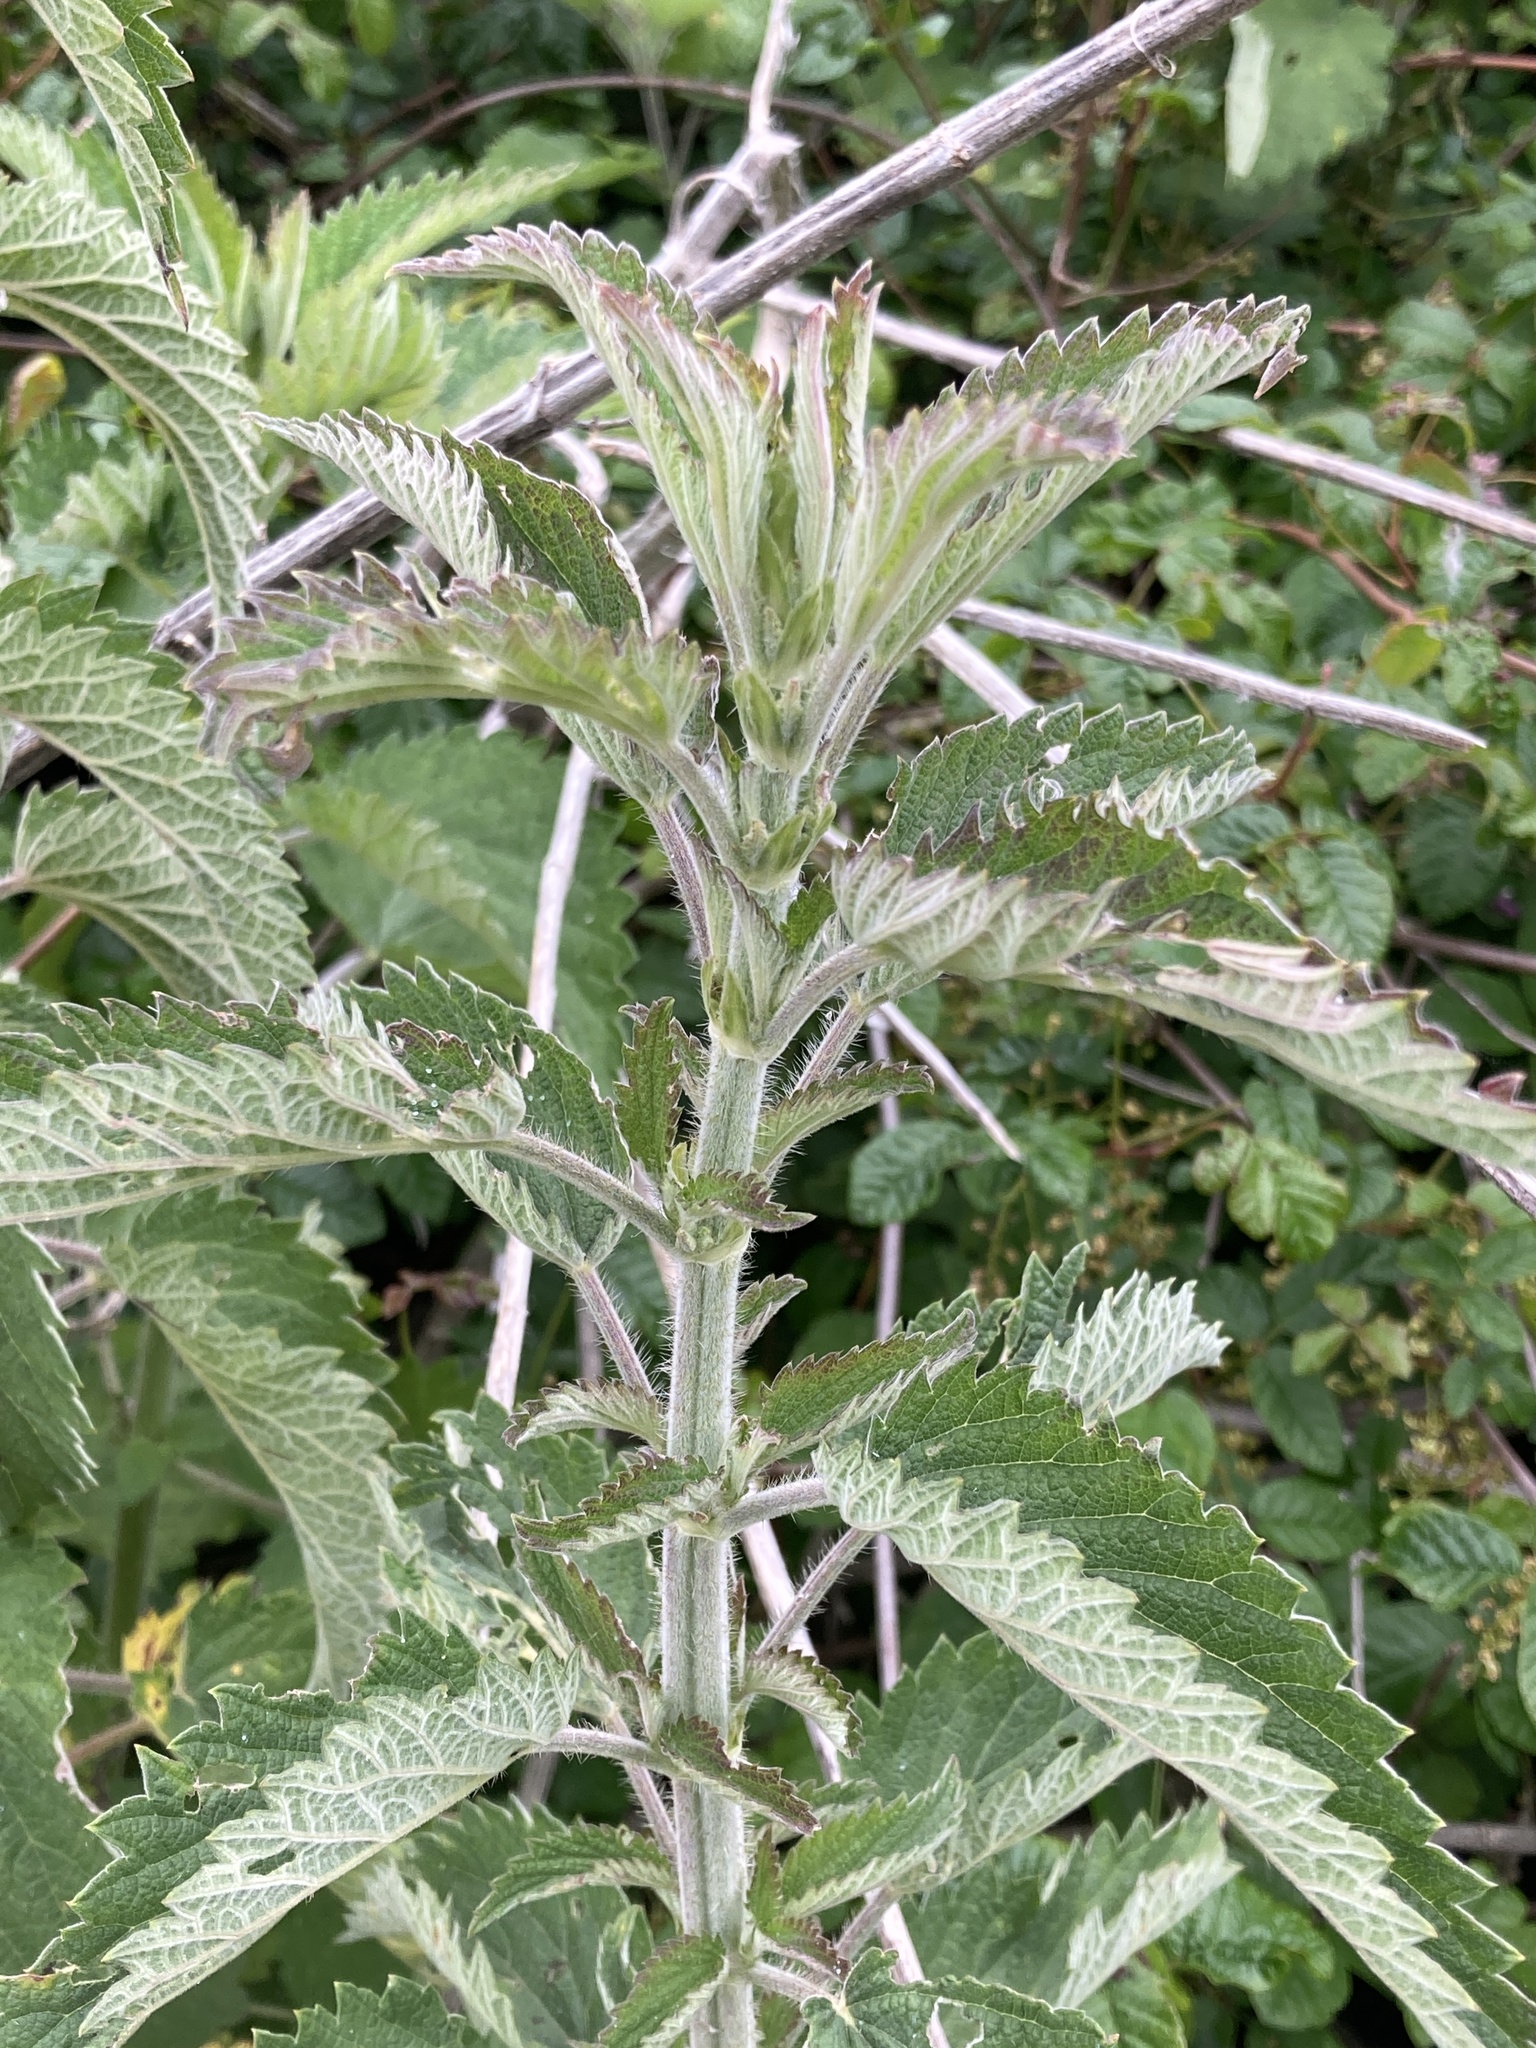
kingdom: Plantae
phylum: Tracheophyta
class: Magnoliopsida
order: Rosales
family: Urticaceae
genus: Urtica
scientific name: Urtica dioica
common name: Common nettle
